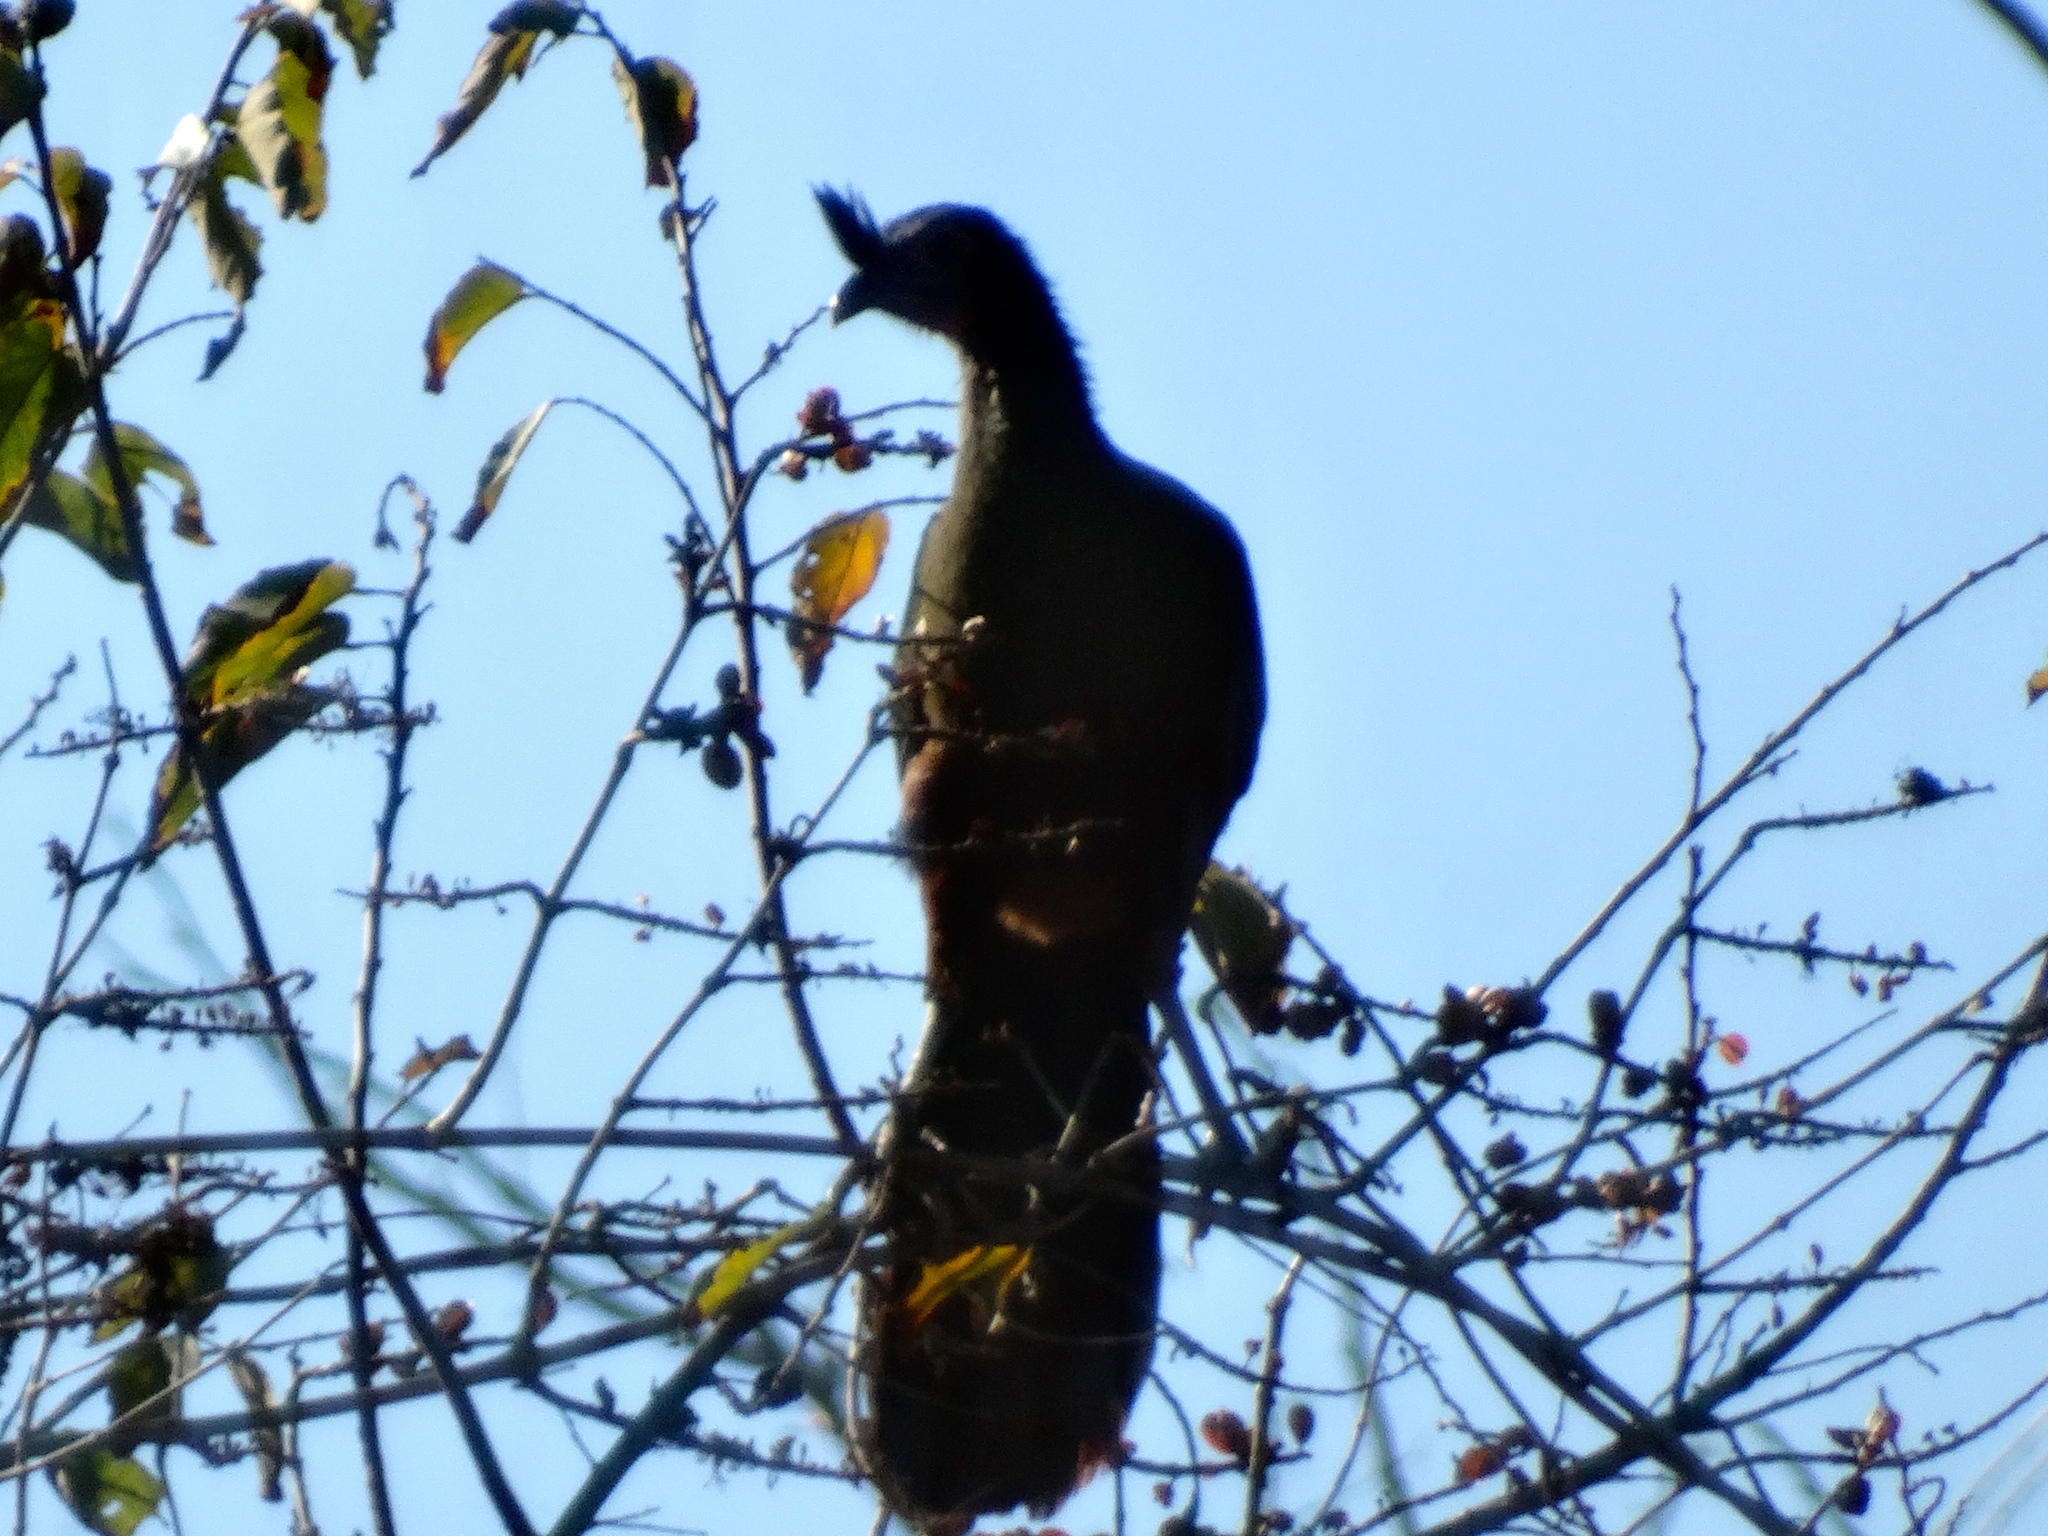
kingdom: Animalia
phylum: Chordata
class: Aves
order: Galliformes
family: Cracidae
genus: Ortalis
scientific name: Ortalis wagleri
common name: Rufous-bellied chachalaca
